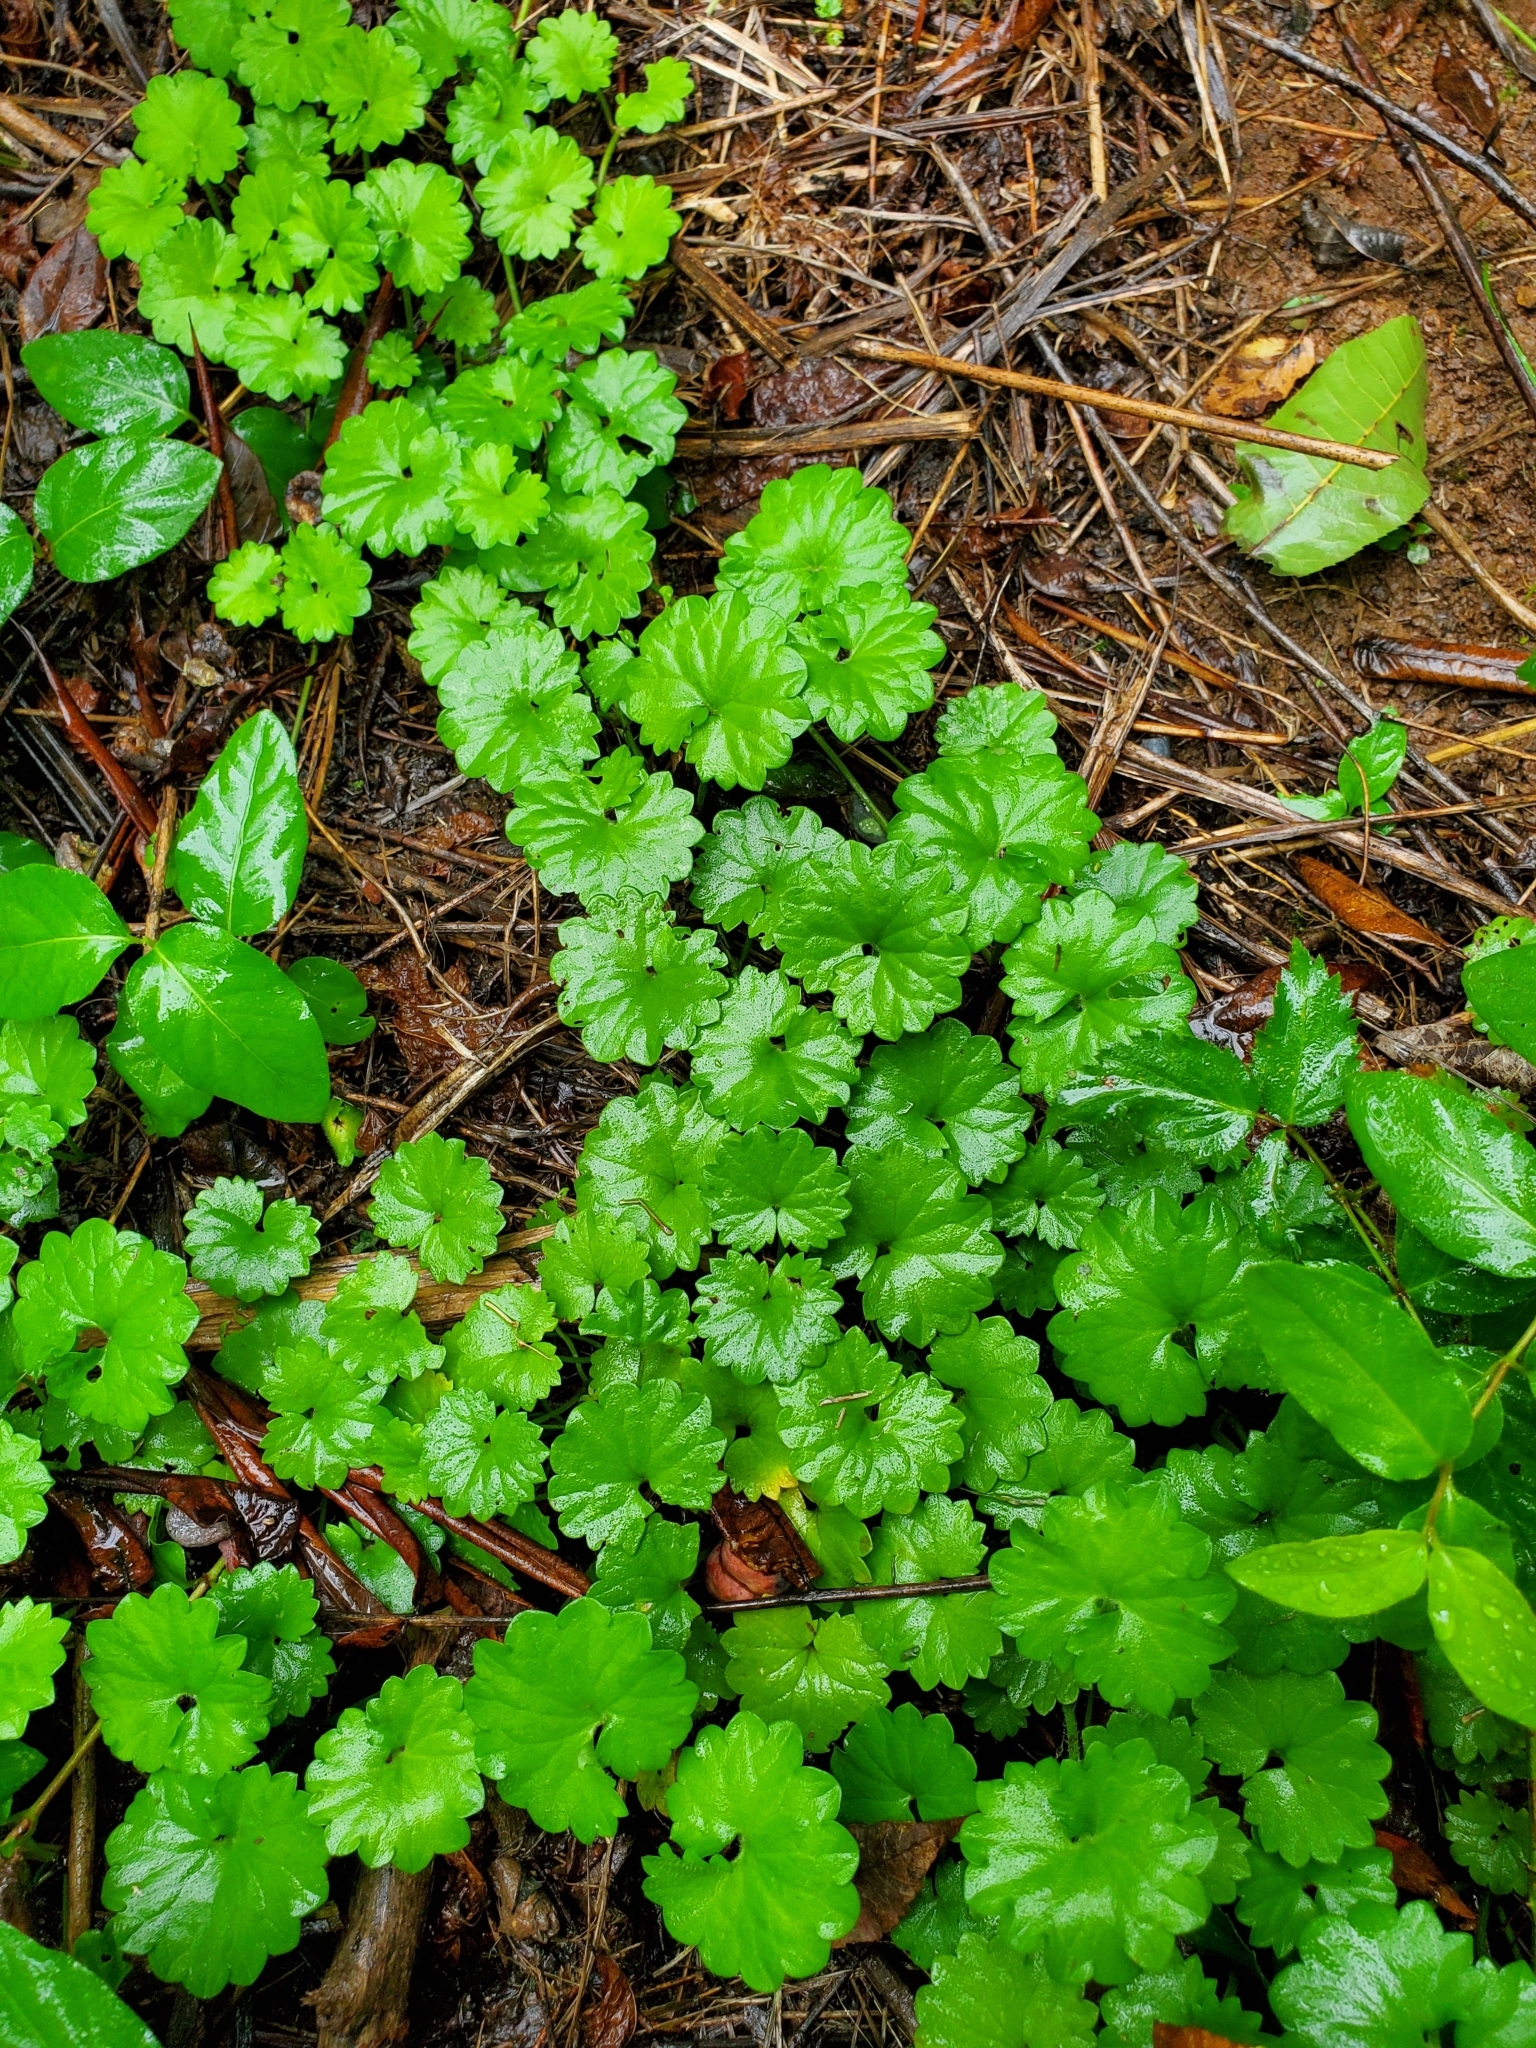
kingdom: Plantae
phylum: Tracheophyta
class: Magnoliopsida
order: Lamiales
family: Lamiaceae
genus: Glechoma
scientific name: Glechoma hederacea
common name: Ground ivy
